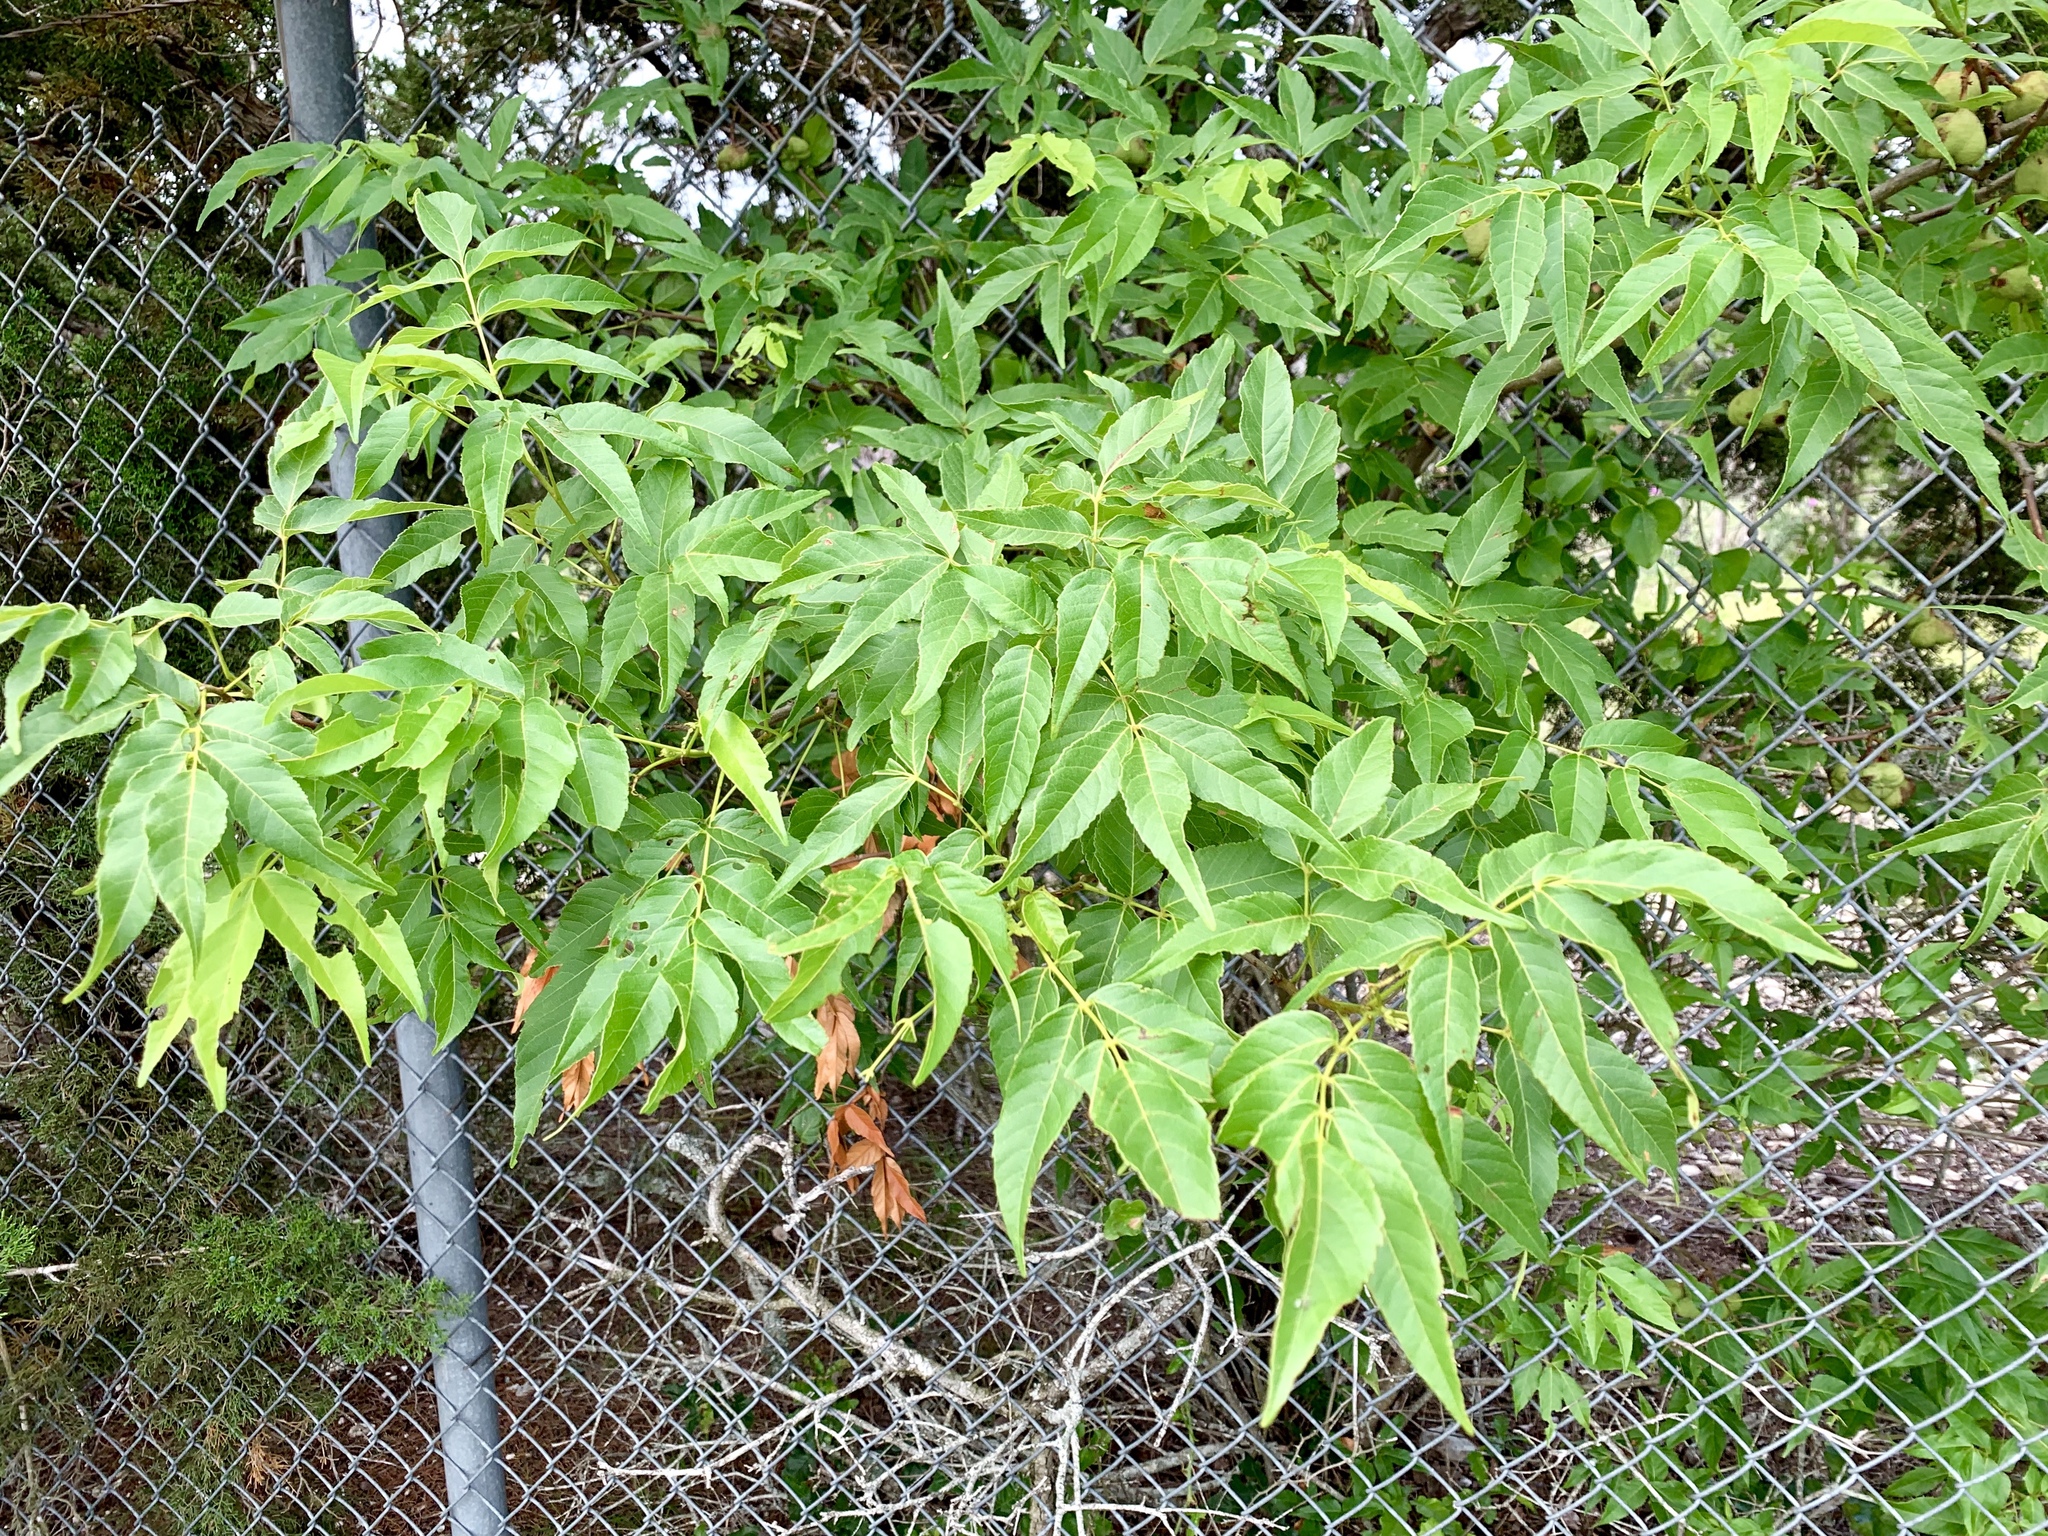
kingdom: Plantae
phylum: Tracheophyta
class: Magnoliopsida
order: Sapindales
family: Sapindaceae
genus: Ungnadia
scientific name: Ungnadia speciosa
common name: Texas-buckeye
